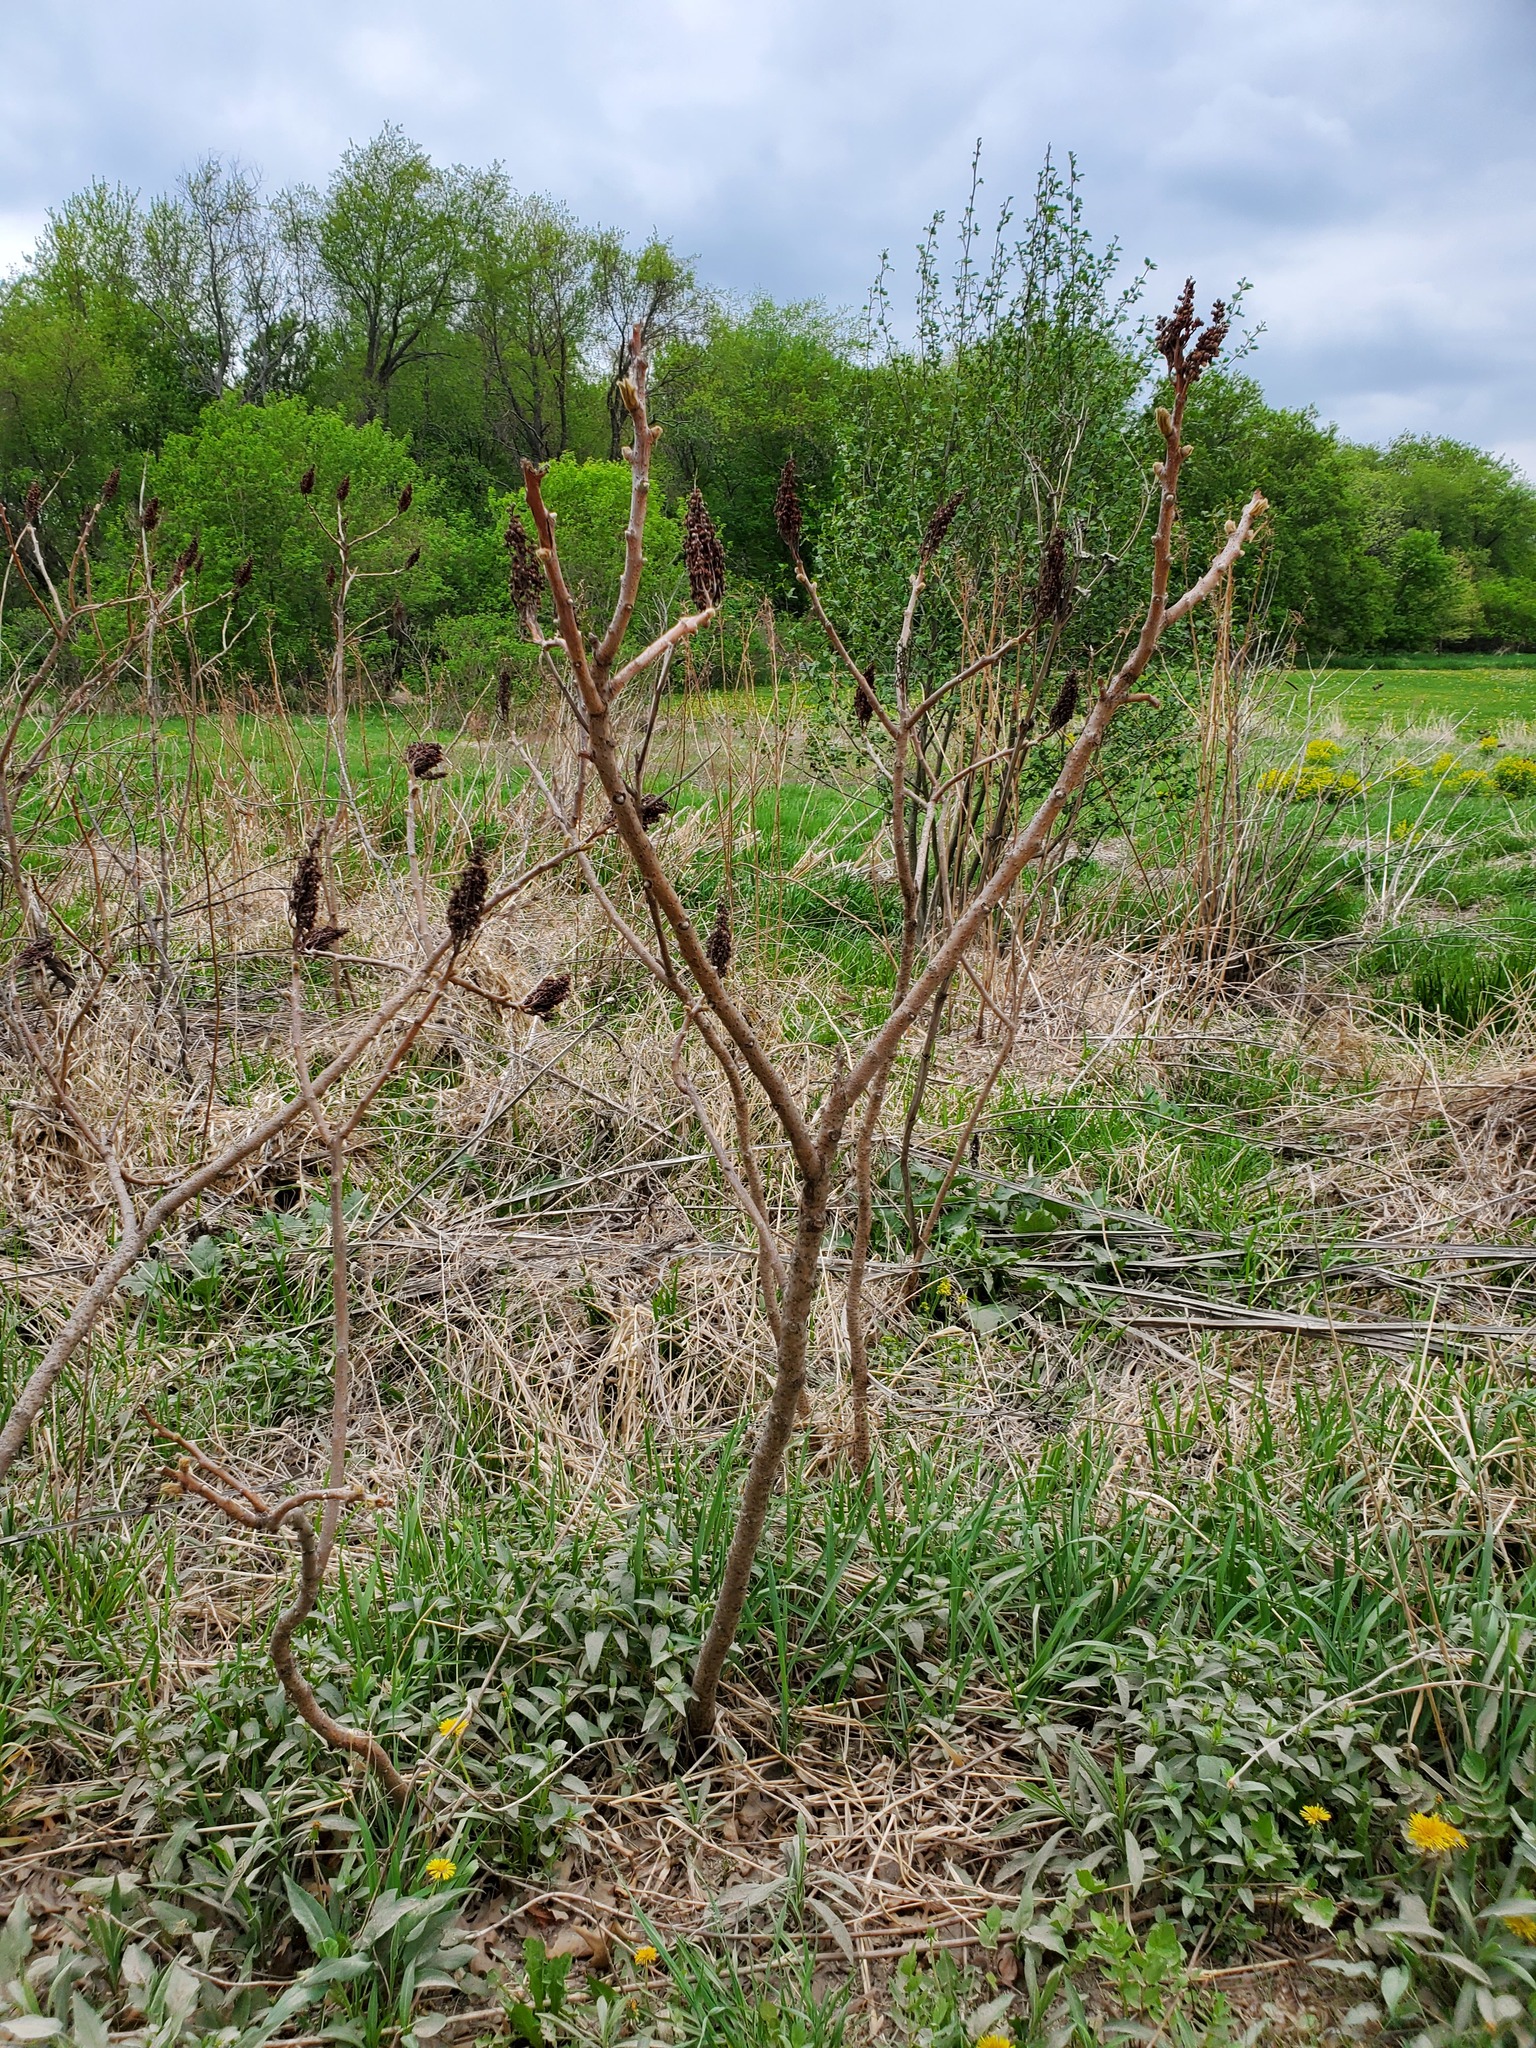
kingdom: Plantae
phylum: Tracheophyta
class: Magnoliopsida
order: Sapindales
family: Anacardiaceae
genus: Rhus
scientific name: Rhus glabra
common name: Scarlet sumac
